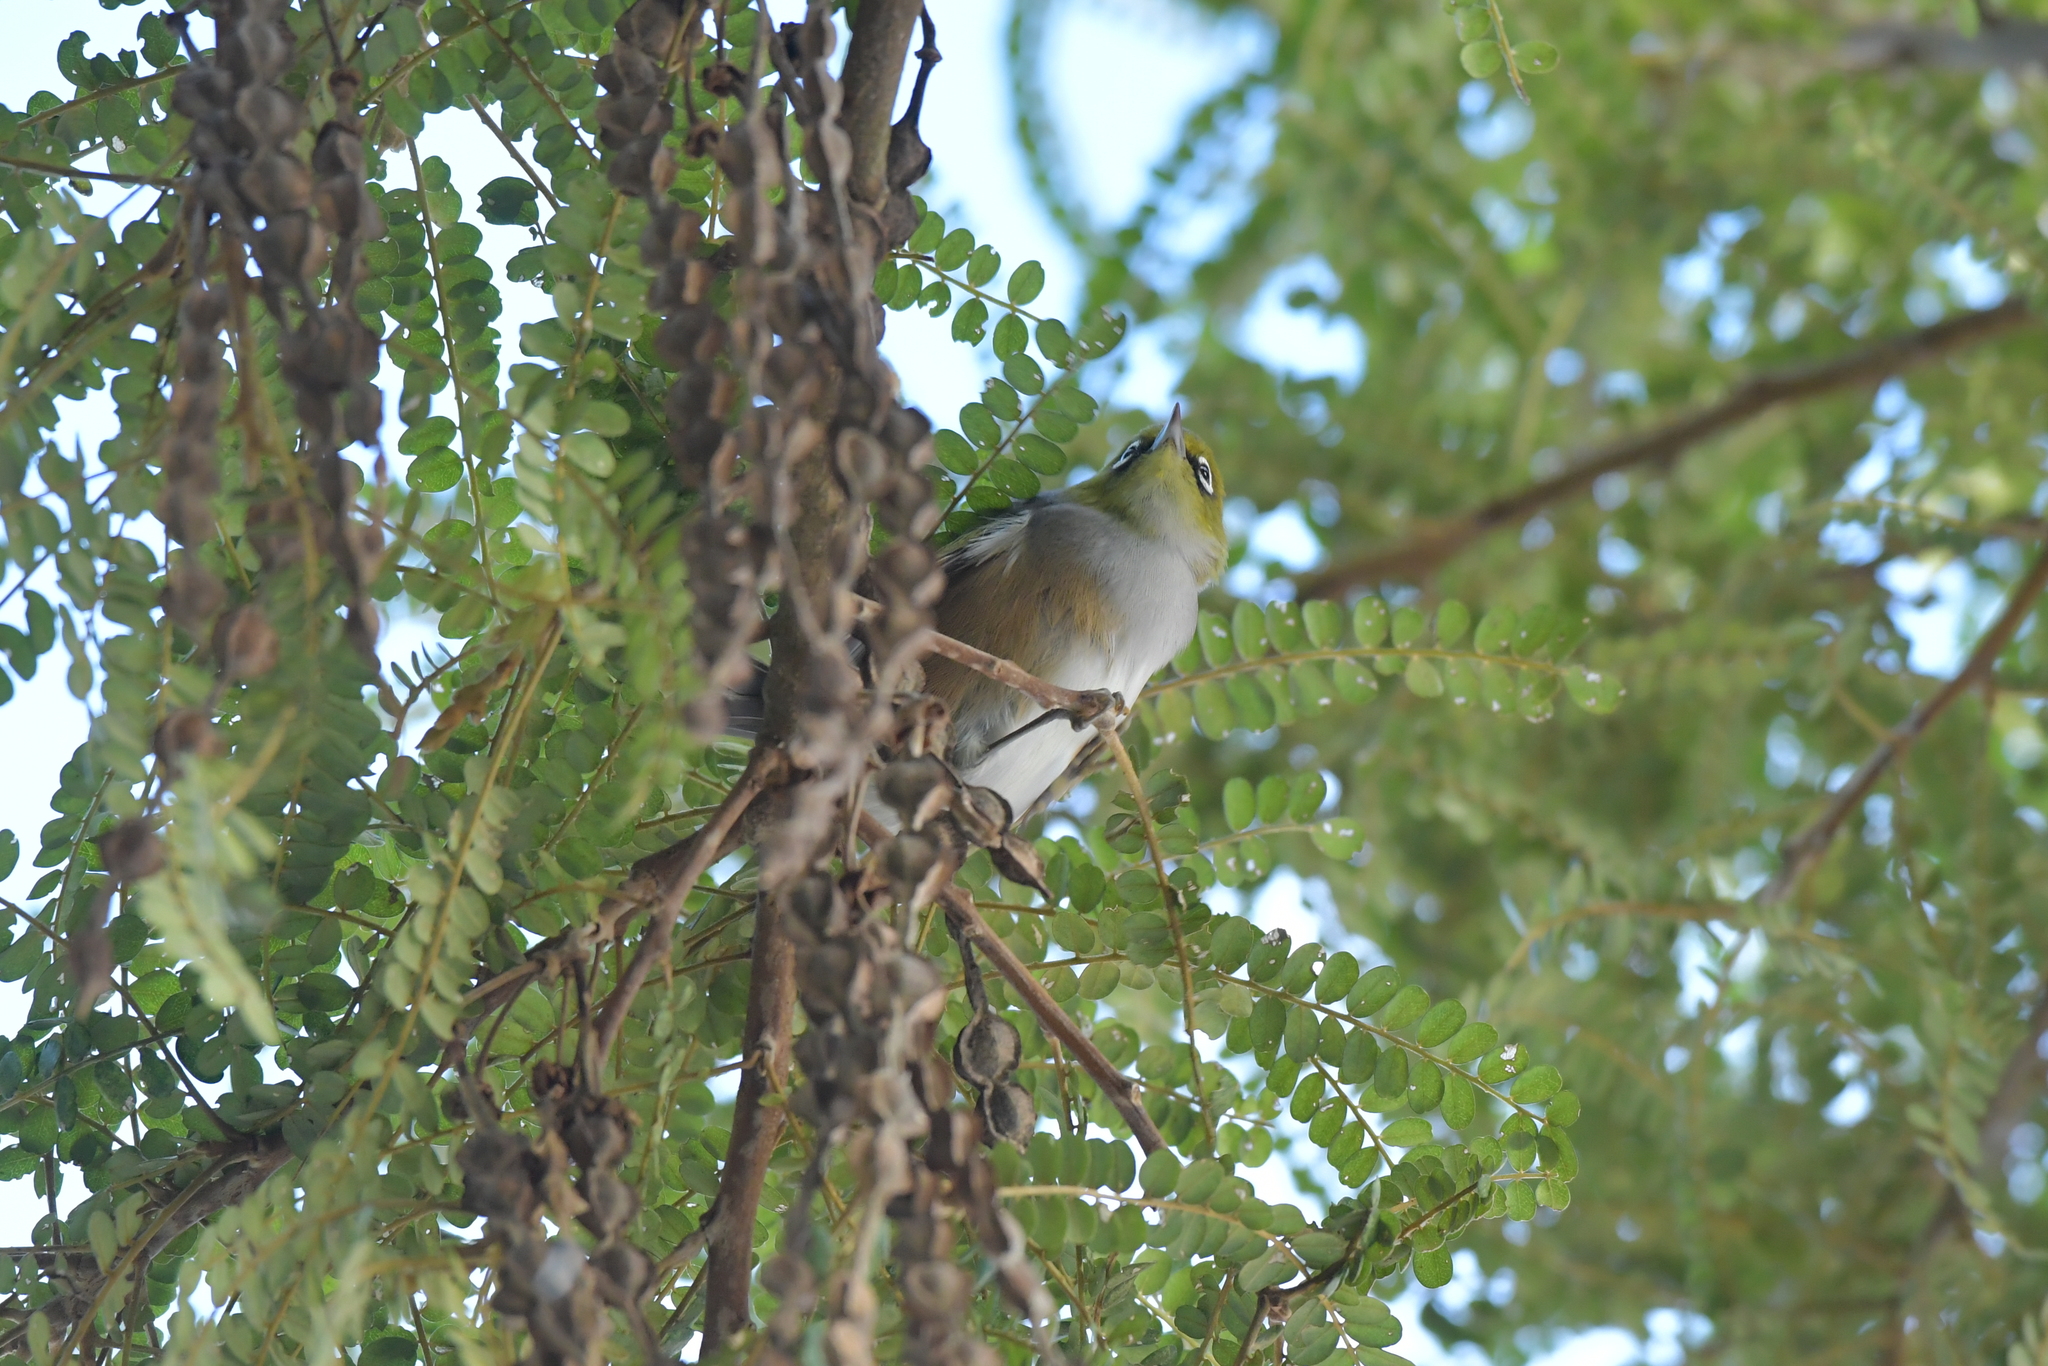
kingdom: Animalia
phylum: Chordata
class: Aves
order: Passeriformes
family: Zosteropidae
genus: Zosterops
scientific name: Zosterops lateralis
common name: Silvereye
